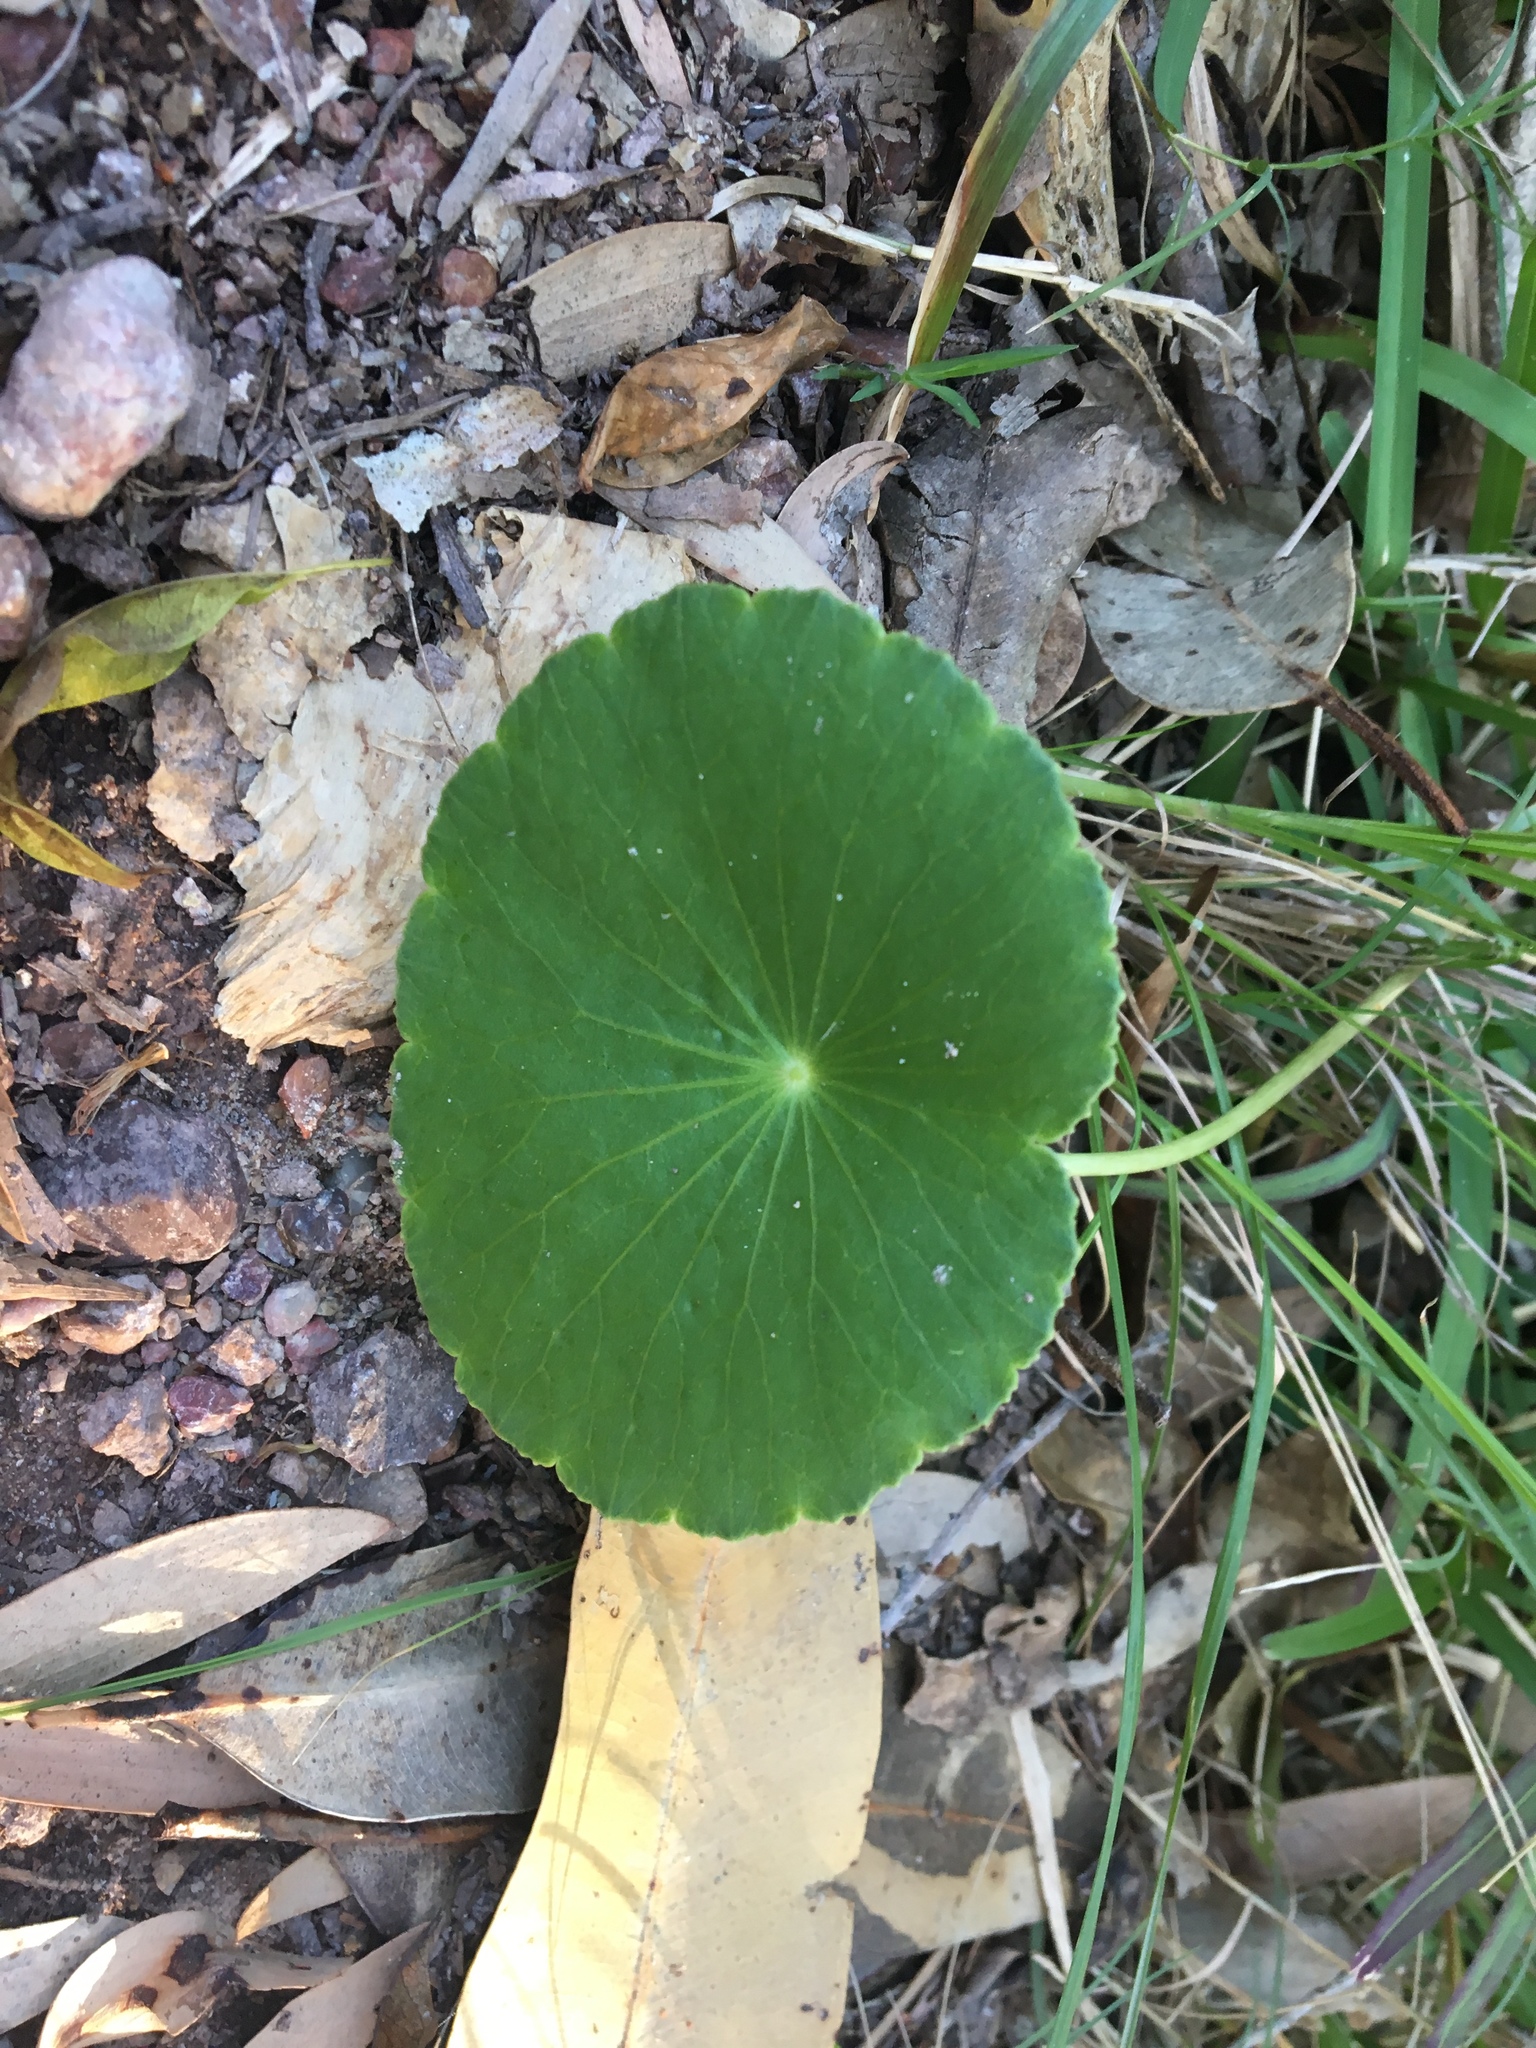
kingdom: Plantae
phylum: Tracheophyta
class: Magnoliopsida
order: Apiales
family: Araliaceae
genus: Hydrocotyle
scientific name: Hydrocotyle bonariensis
